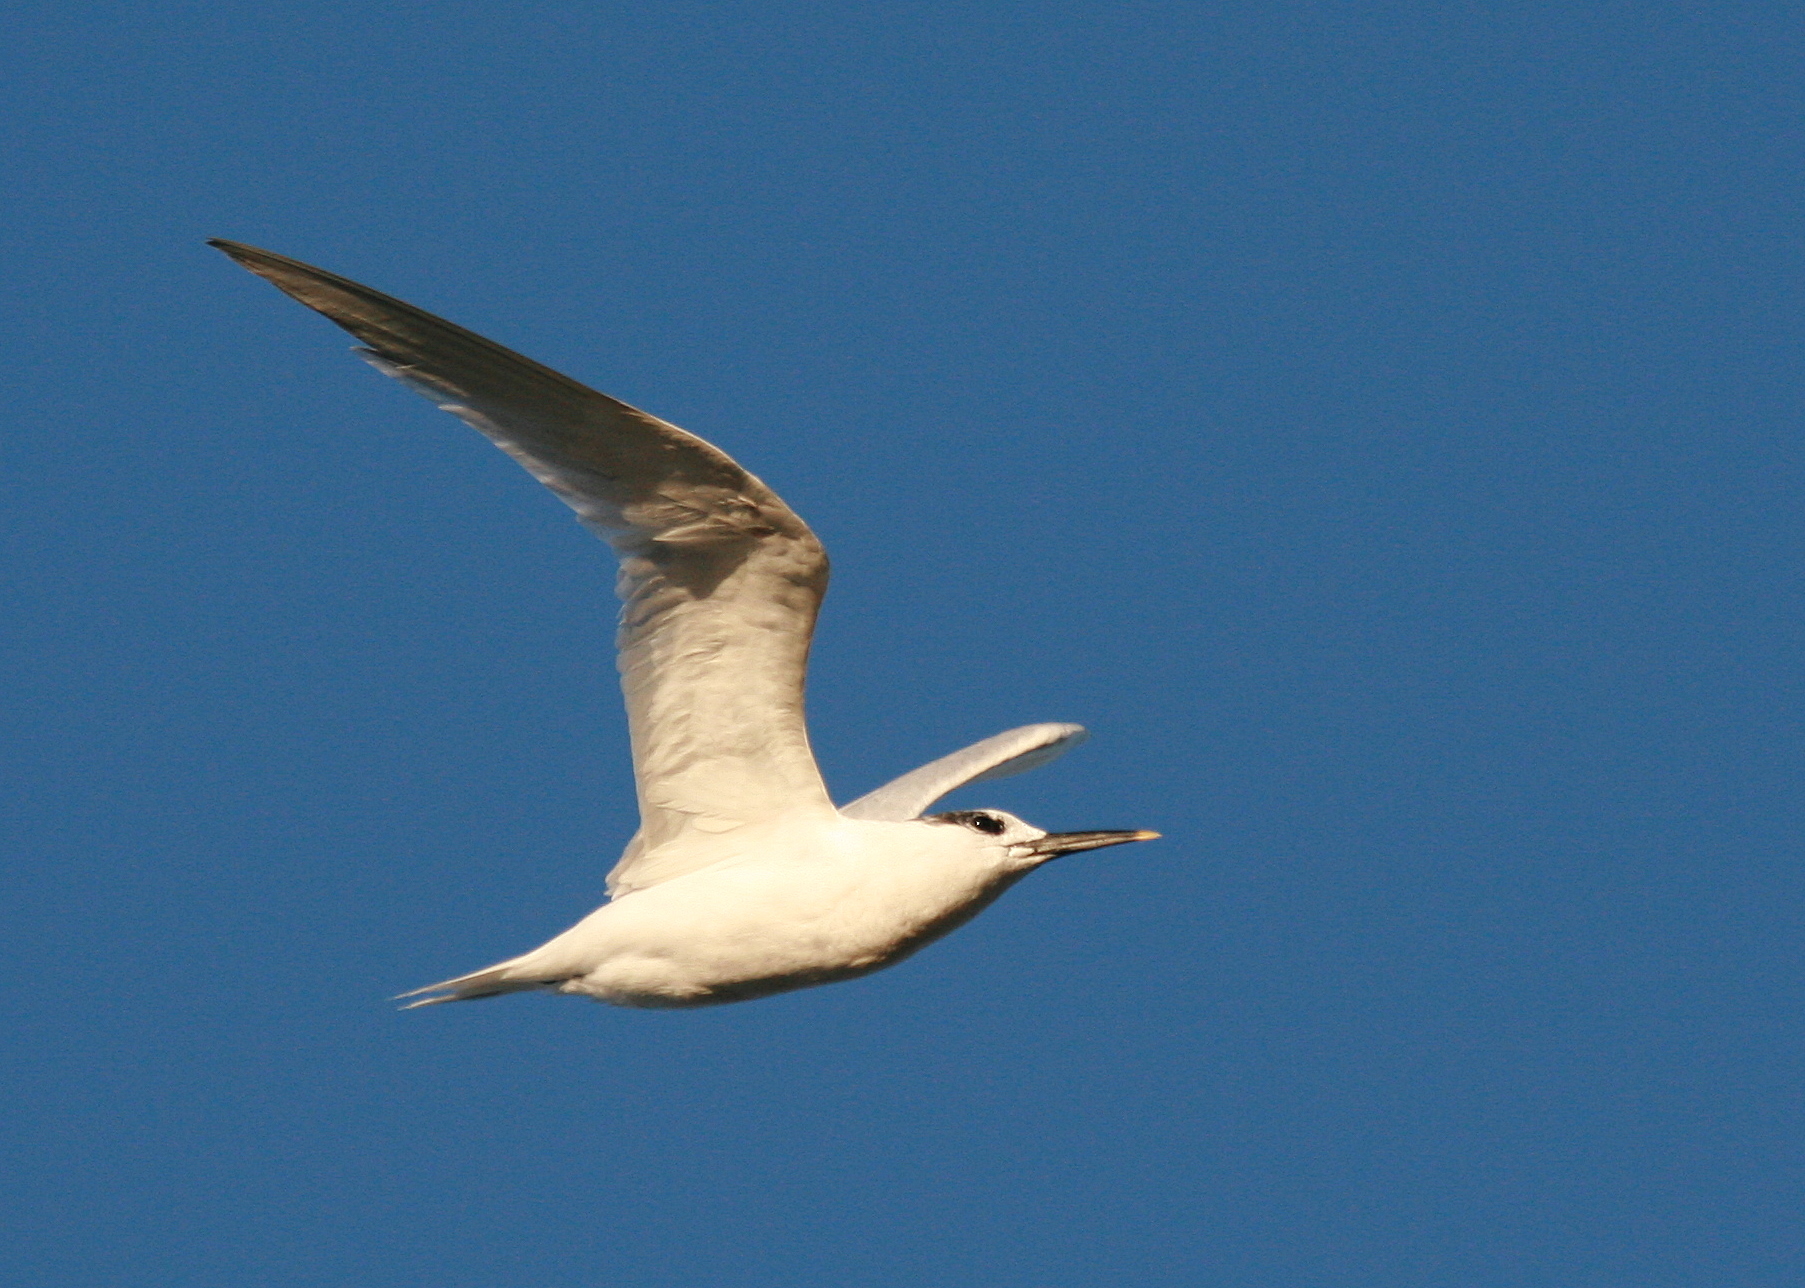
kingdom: Animalia
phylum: Chordata
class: Aves
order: Charadriiformes
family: Laridae
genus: Thalasseus
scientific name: Thalasseus sandvicensis
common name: Sandwich tern
